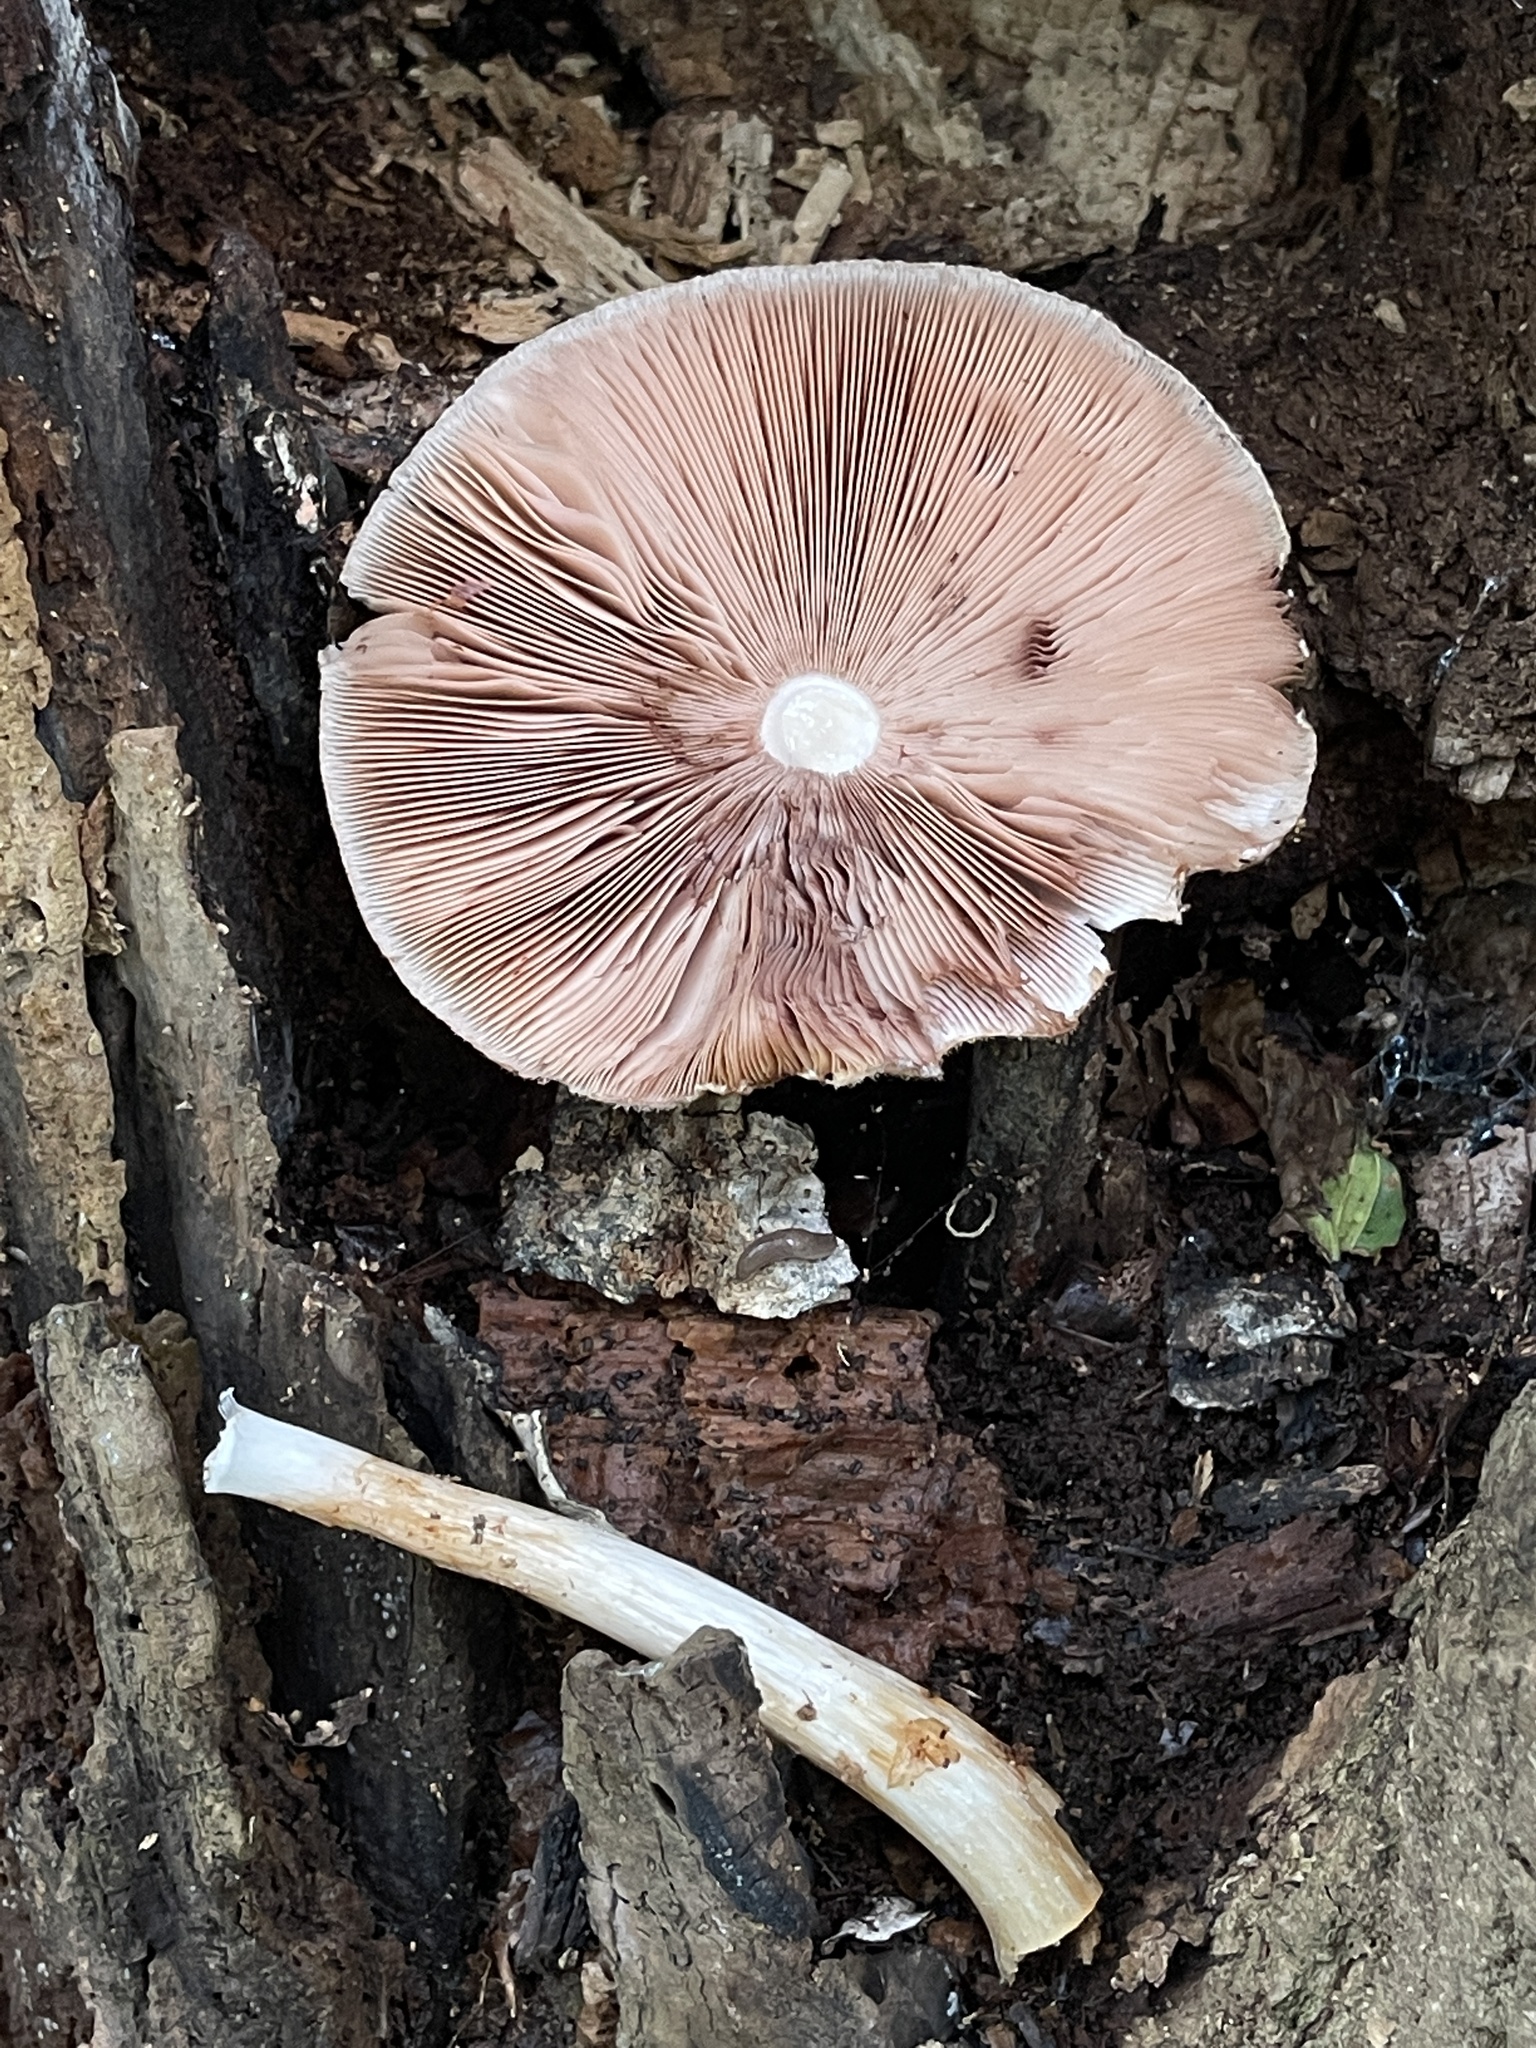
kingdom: Fungi
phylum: Basidiomycota
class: Agaricomycetes
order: Agaricales
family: Pluteaceae
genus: Volvariella
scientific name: Volvariella bombycina
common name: Silky rosegill
